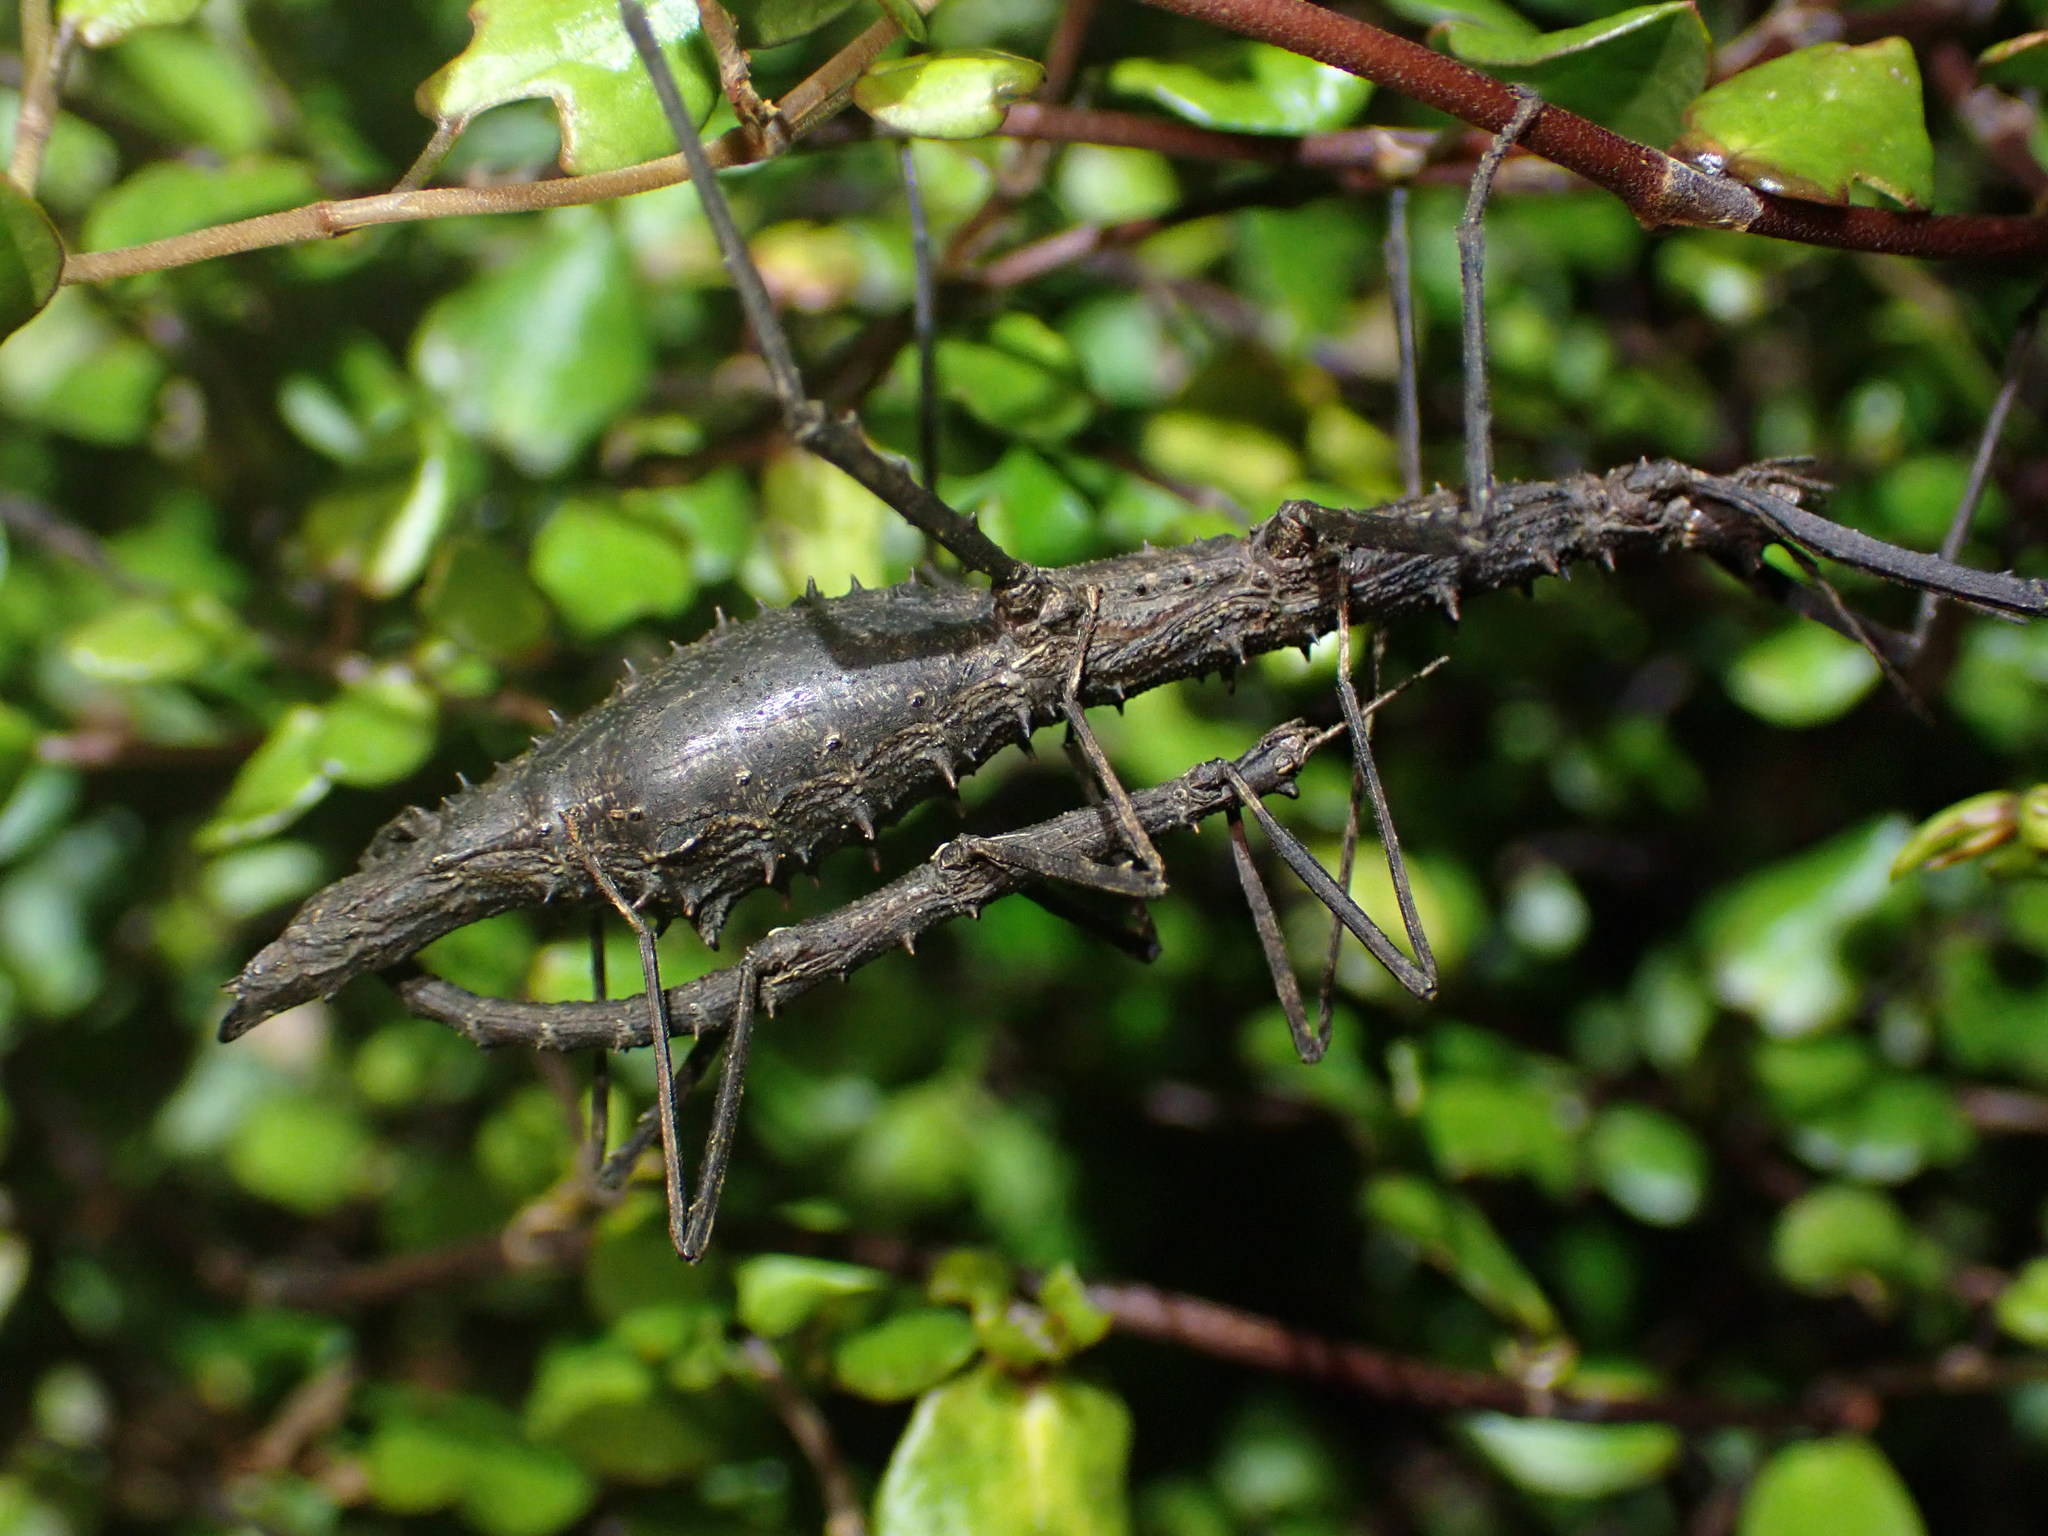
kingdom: Animalia
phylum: Arthropoda
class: Insecta
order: Phasmida
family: Phasmatidae
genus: Micrarchus
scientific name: Micrarchus hystriculeus
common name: The lesser spiny stick insect
